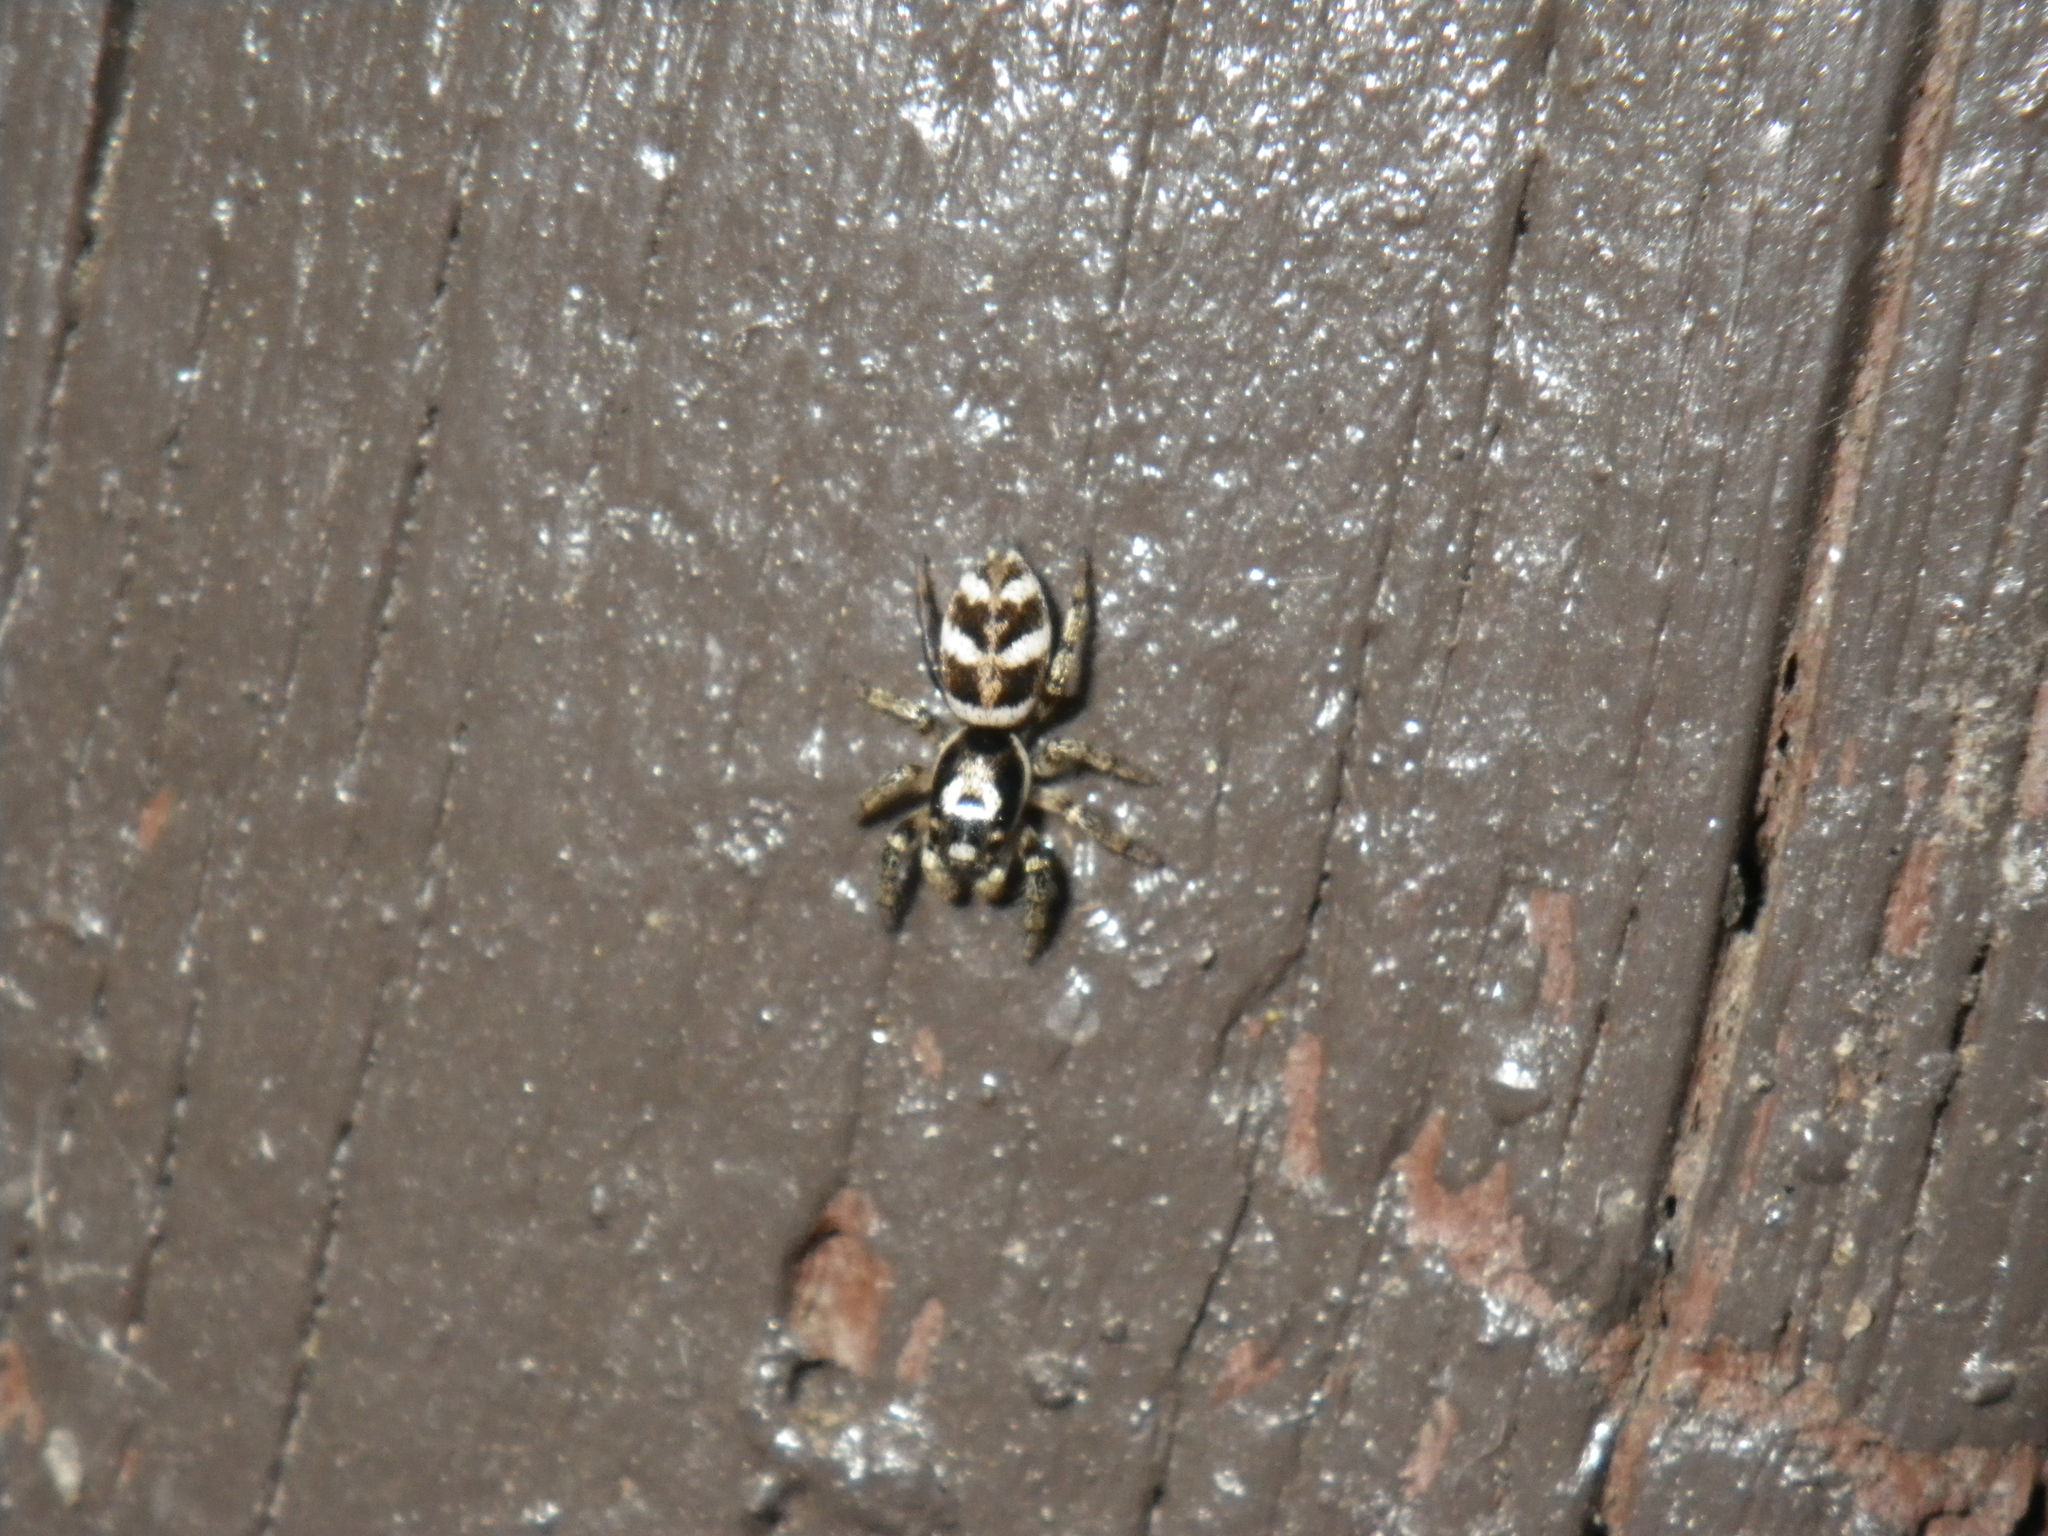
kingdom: Animalia
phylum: Arthropoda
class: Arachnida
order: Araneae
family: Salticidae
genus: Salticus
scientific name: Salticus scenicus
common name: Zebra jumper
